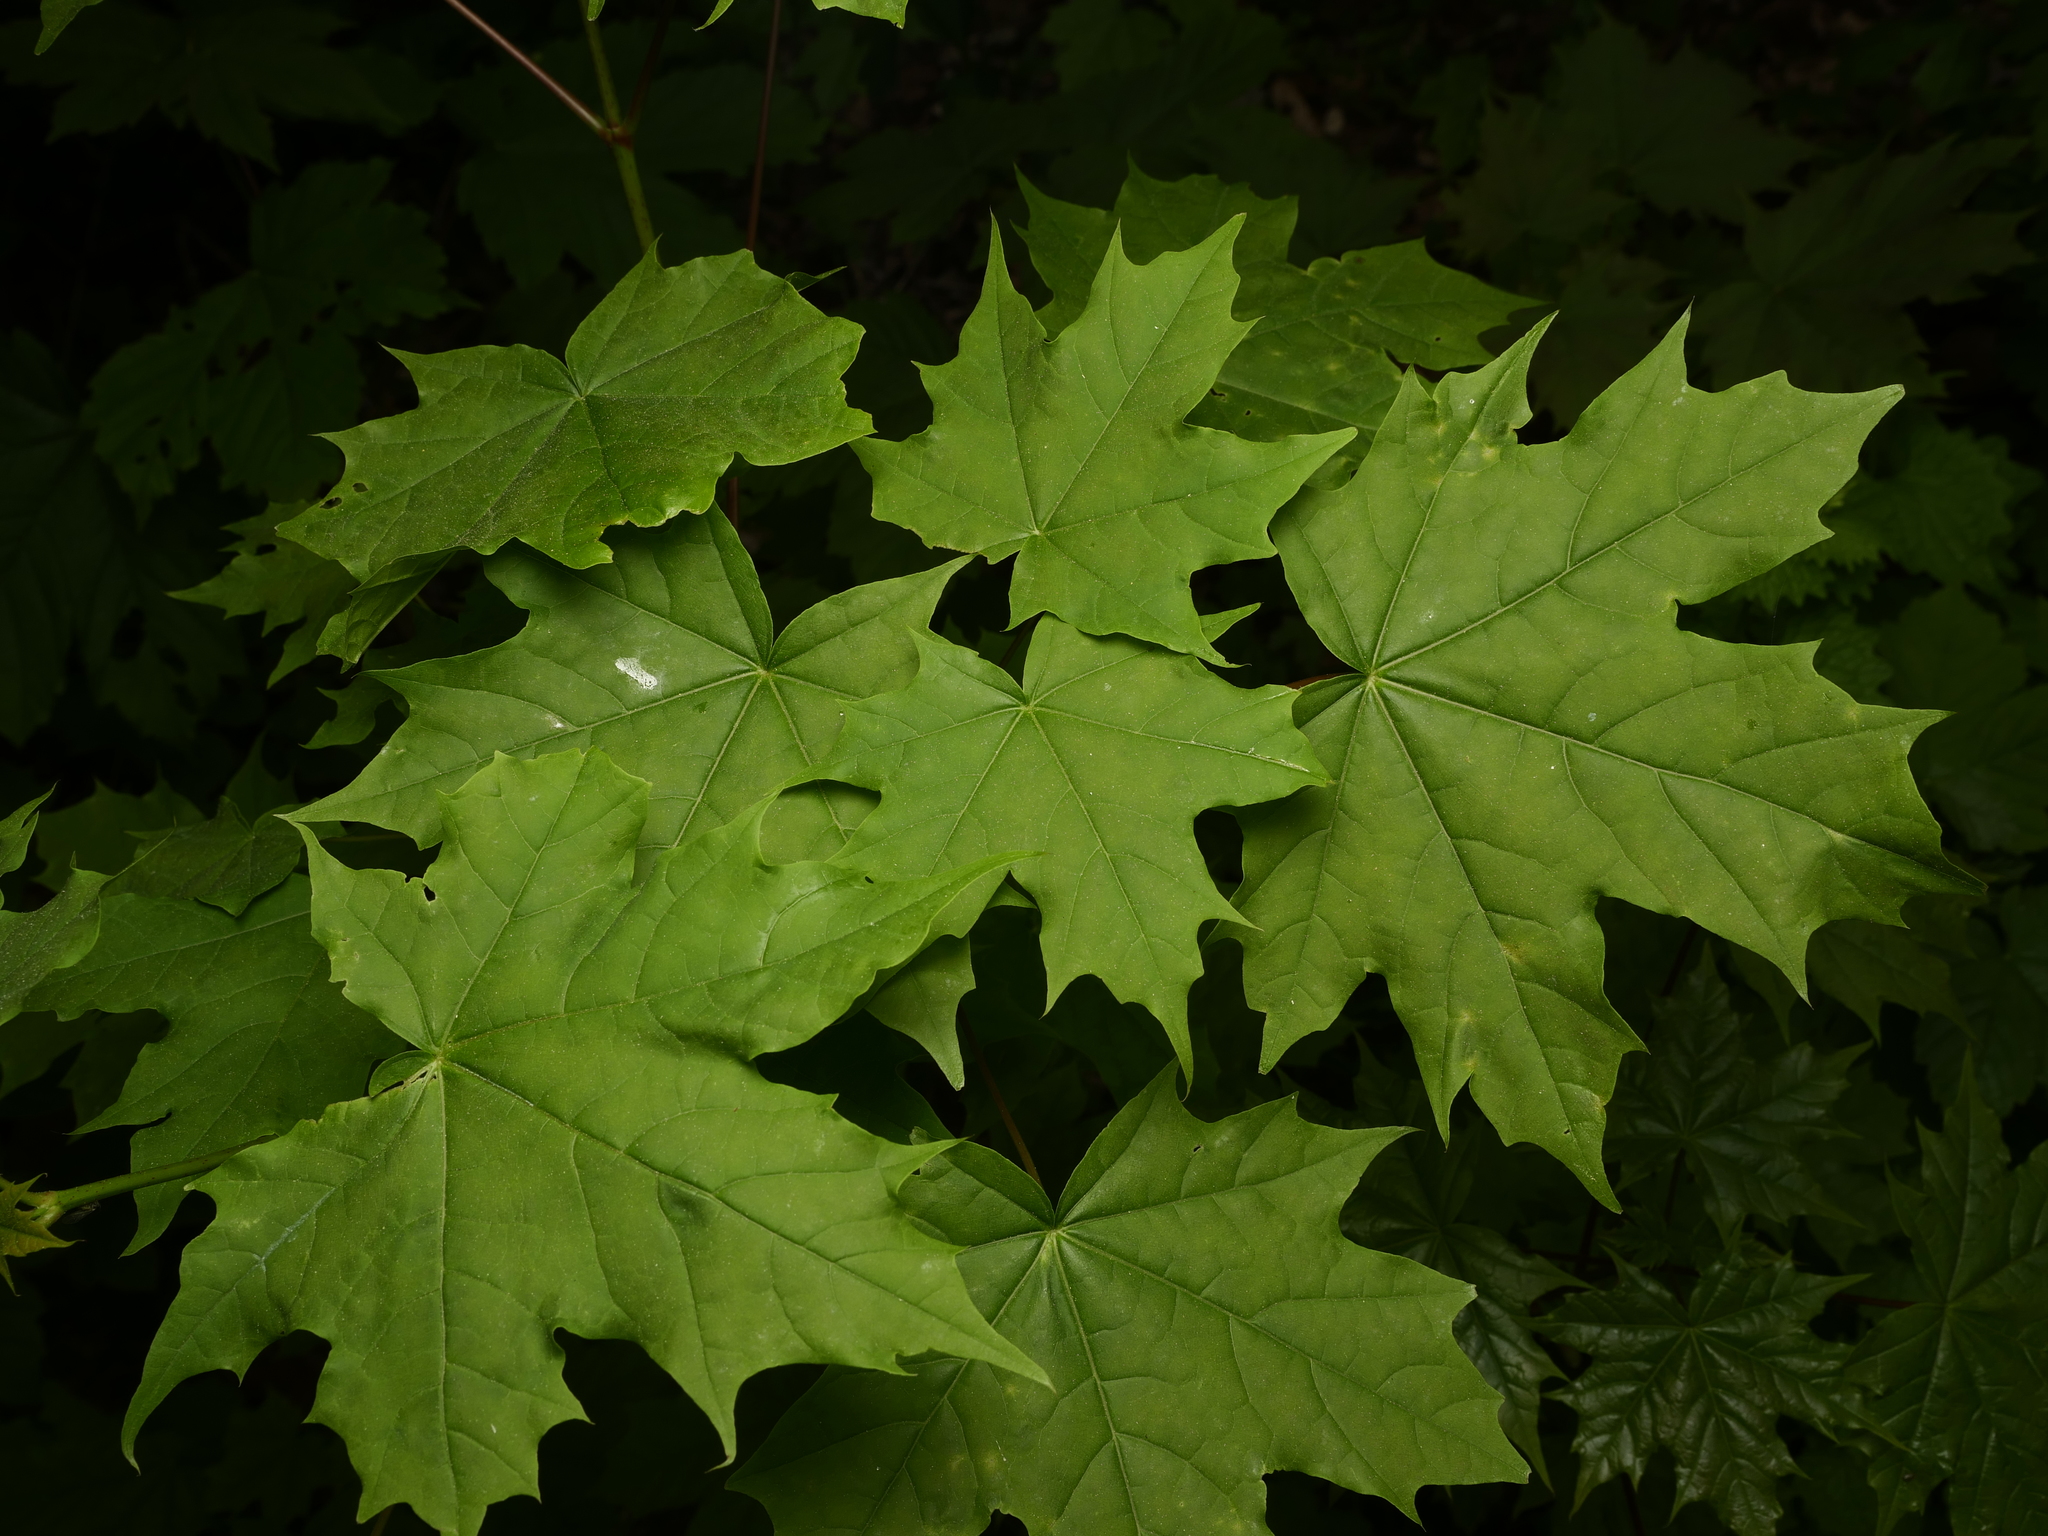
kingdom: Plantae
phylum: Tracheophyta
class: Magnoliopsida
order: Sapindales
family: Sapindaceae
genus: Acer
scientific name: Acer platanoides
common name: Norway maple
